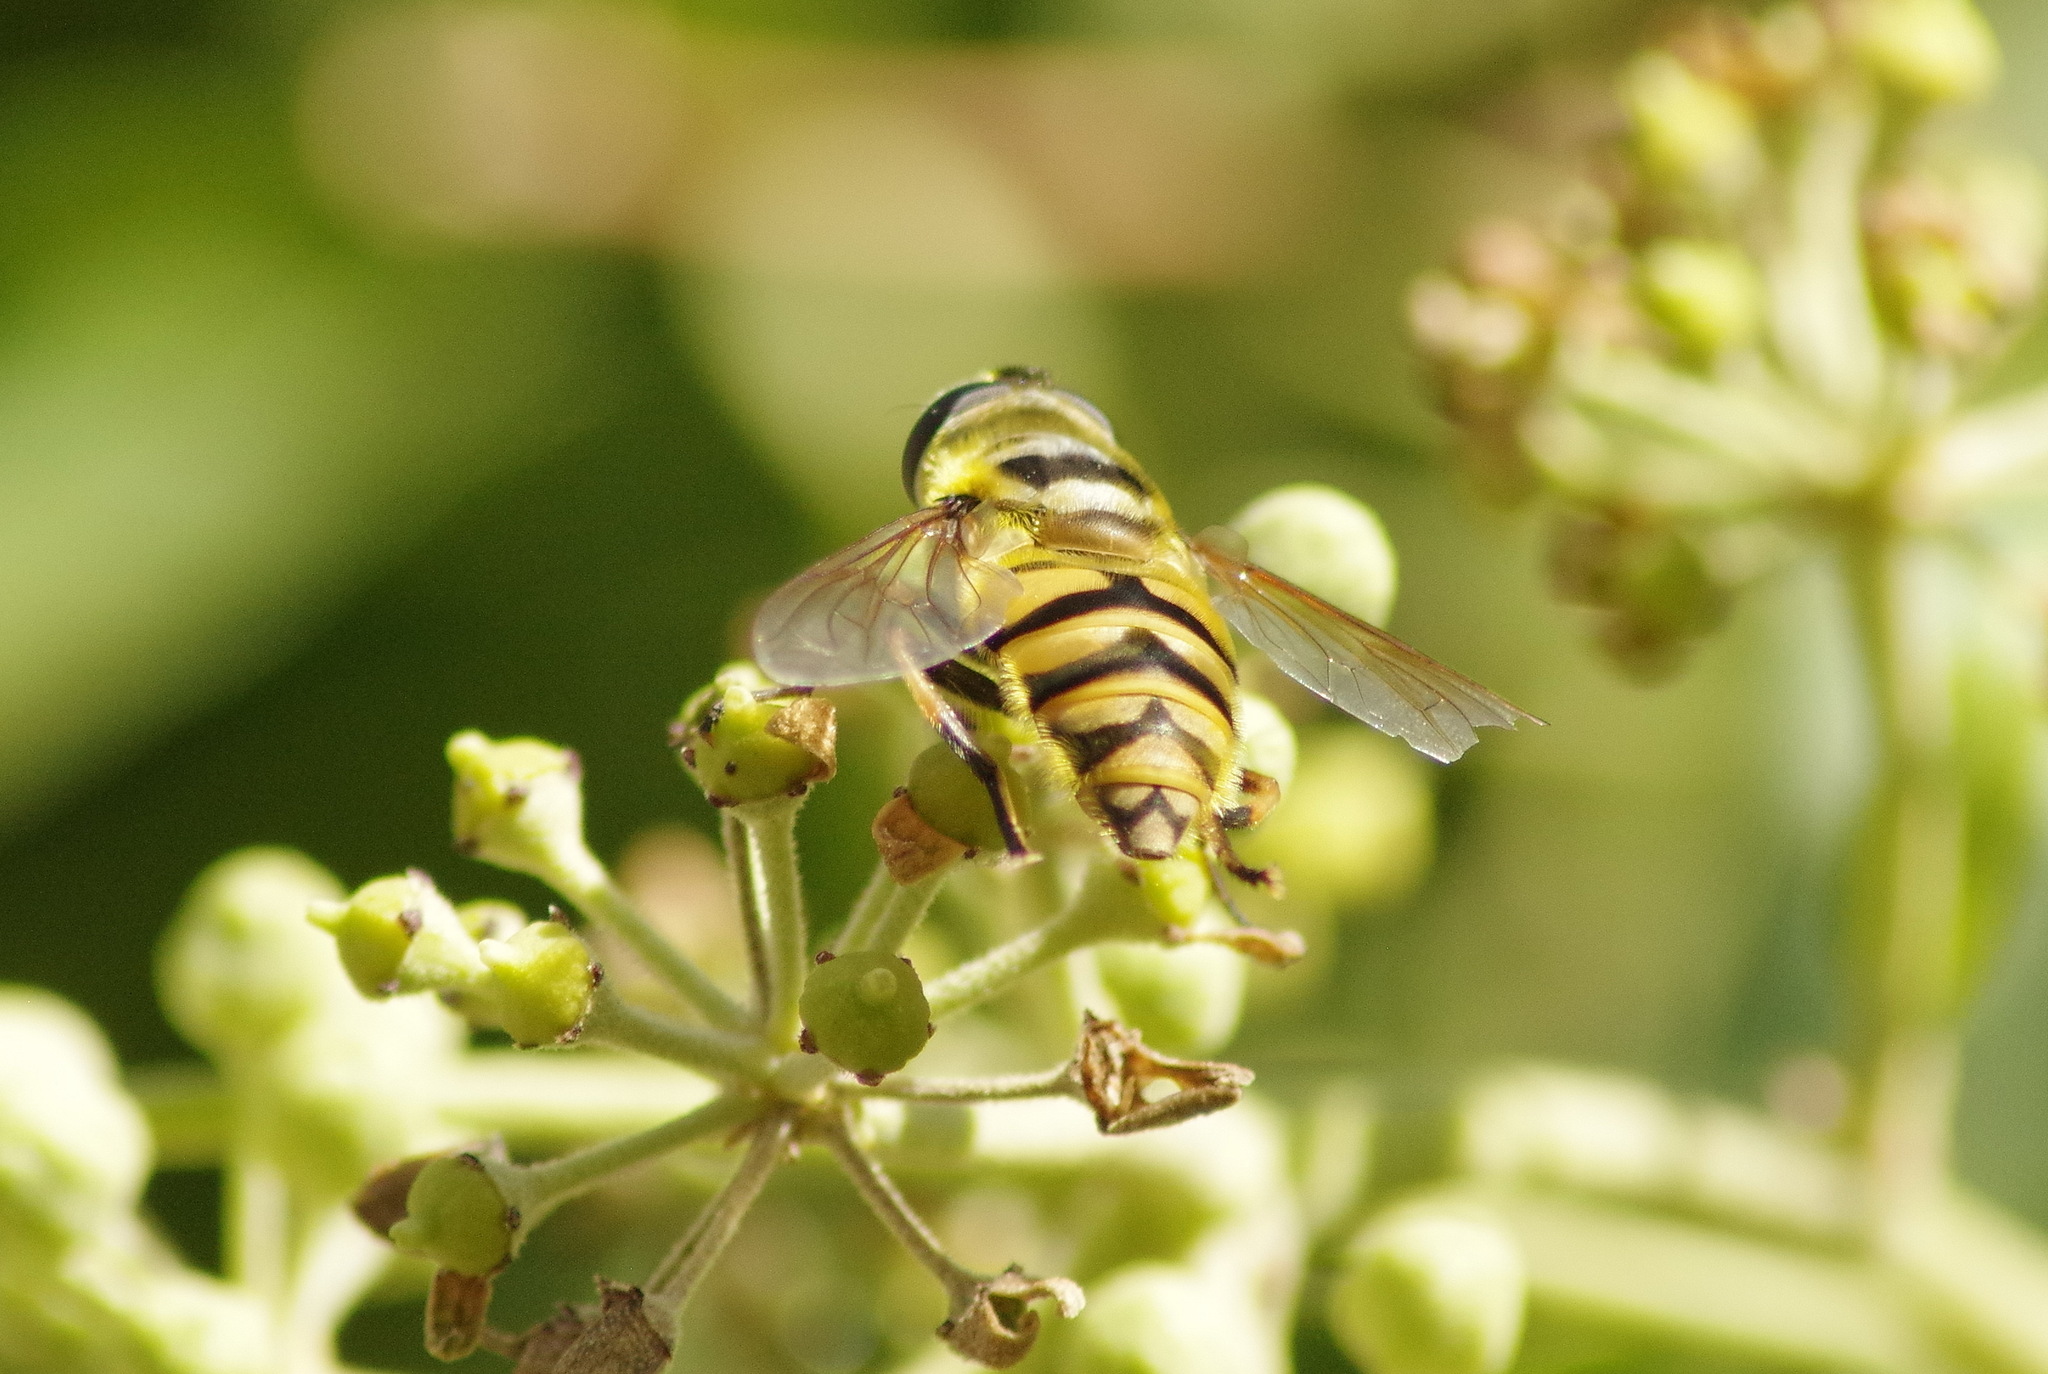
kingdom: Animalia
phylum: Arthropoda
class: Insecta
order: Diptera
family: Syrphidae
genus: Myathropa
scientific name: Myathropa florea
